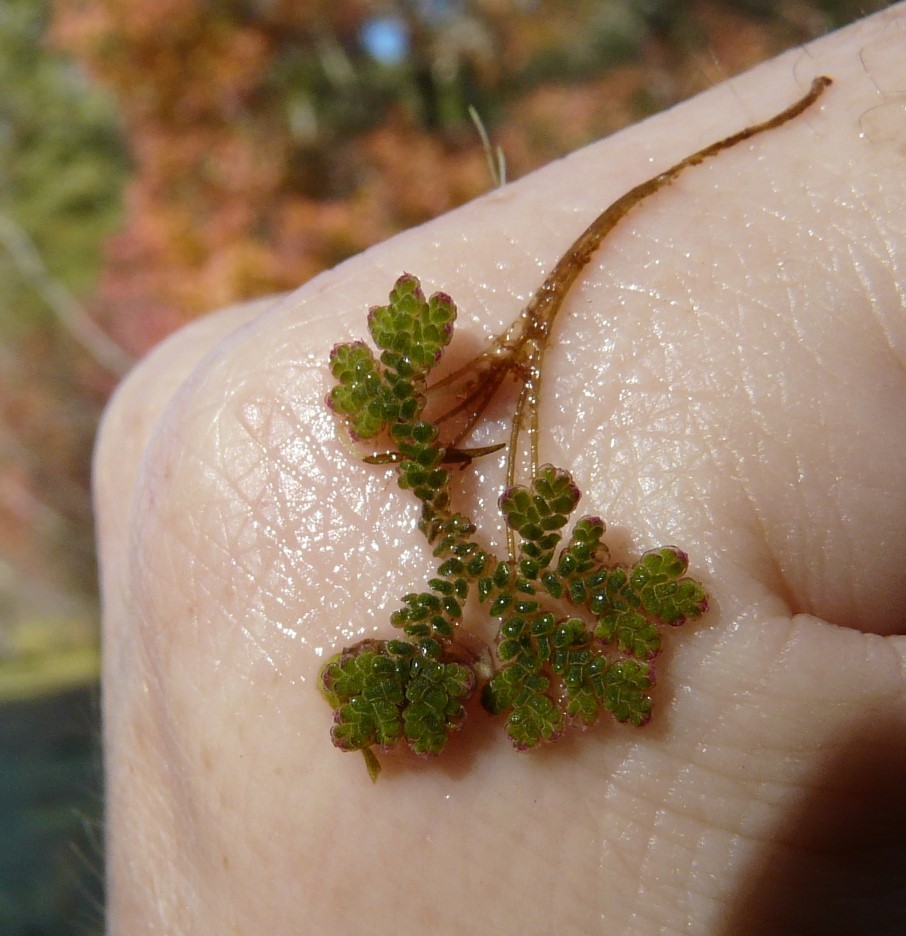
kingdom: Plantae
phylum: Tracheophyta
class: Polypodiopsida
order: Salviniales
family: Salviniaceae
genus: Azolla
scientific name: Azolla caroliniana
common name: Carolina mosquitofern
